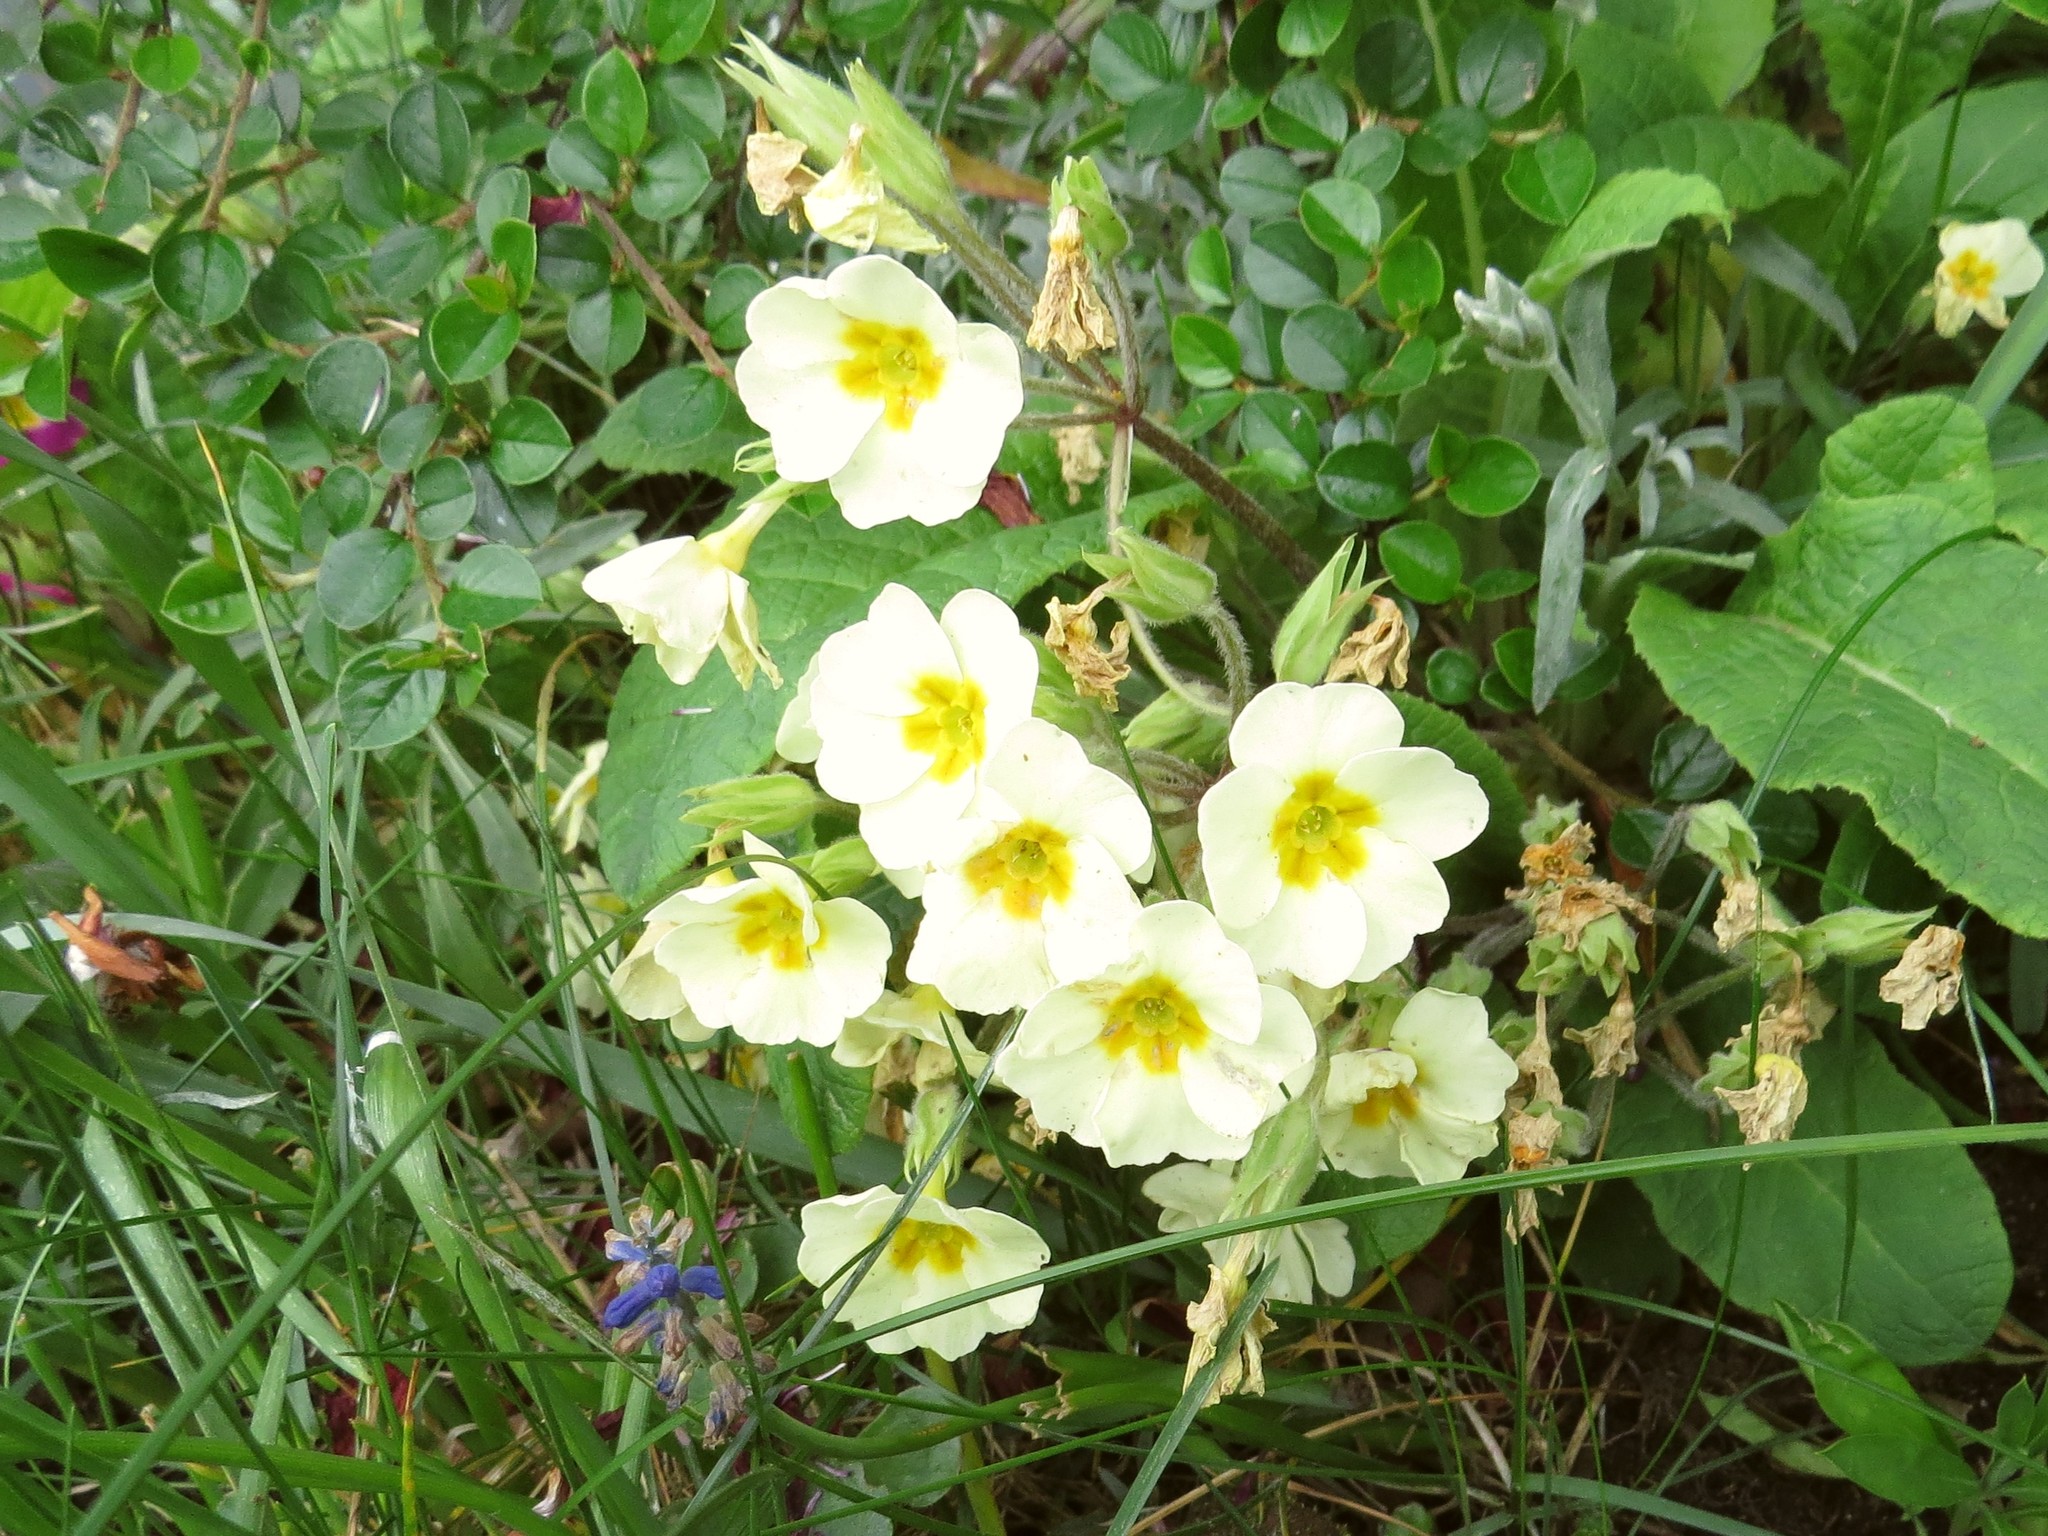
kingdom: Plantae
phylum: Tracheophyta
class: Magnoliopsida
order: Ericales
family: Primulaceae
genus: Primula
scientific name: Primula vulgaris
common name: Primrose
